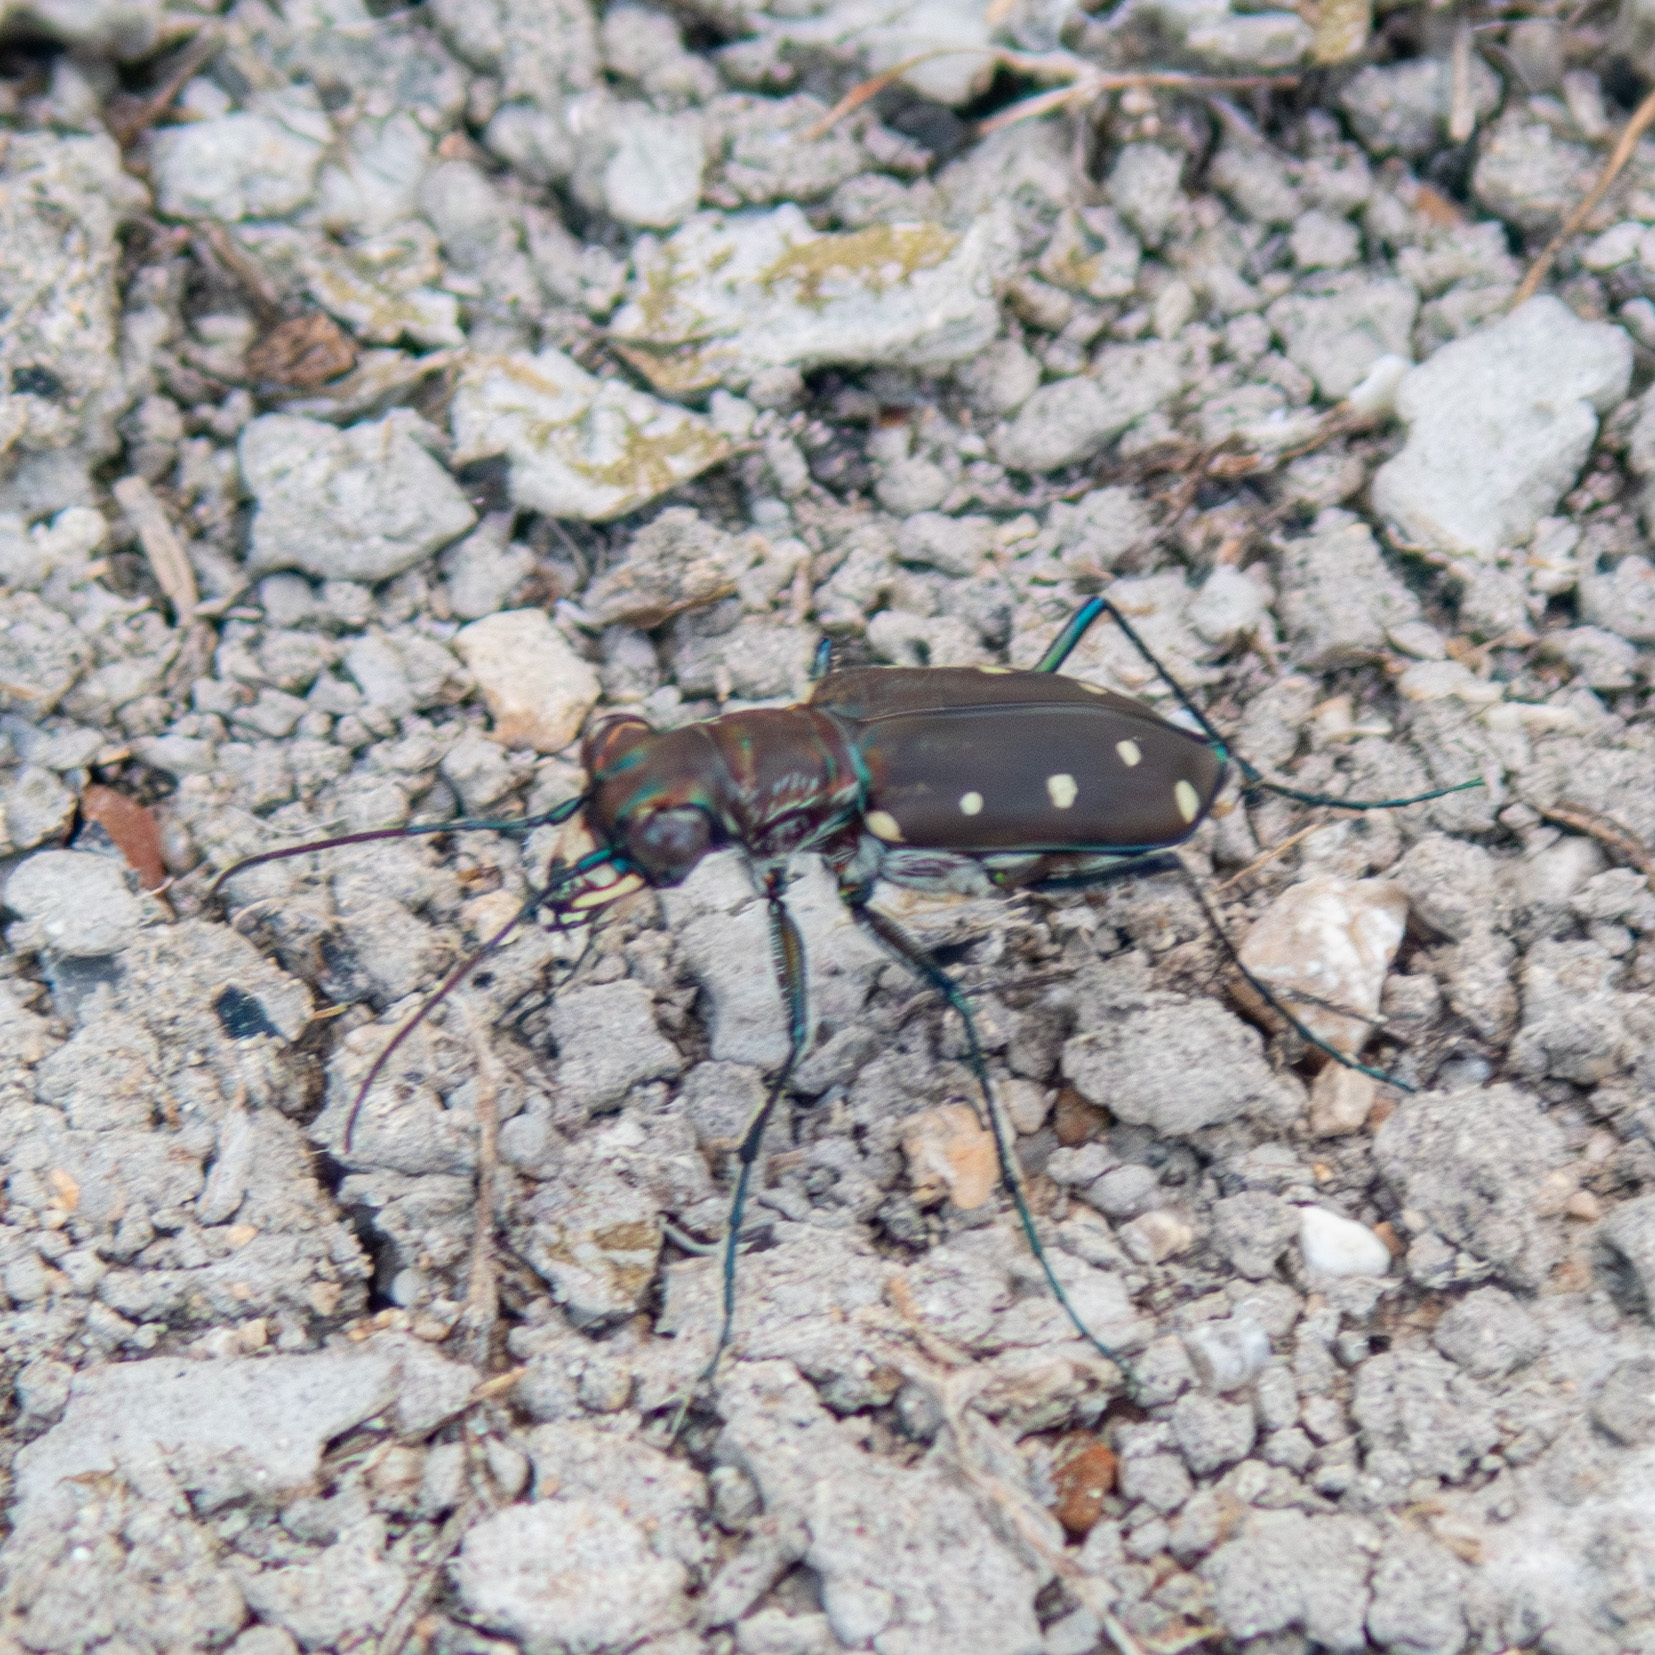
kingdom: Animalia
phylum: Arthropoda
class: Insecta
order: Coleoptera
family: Carabidae
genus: Cicindela
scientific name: Cicindela ocellata
